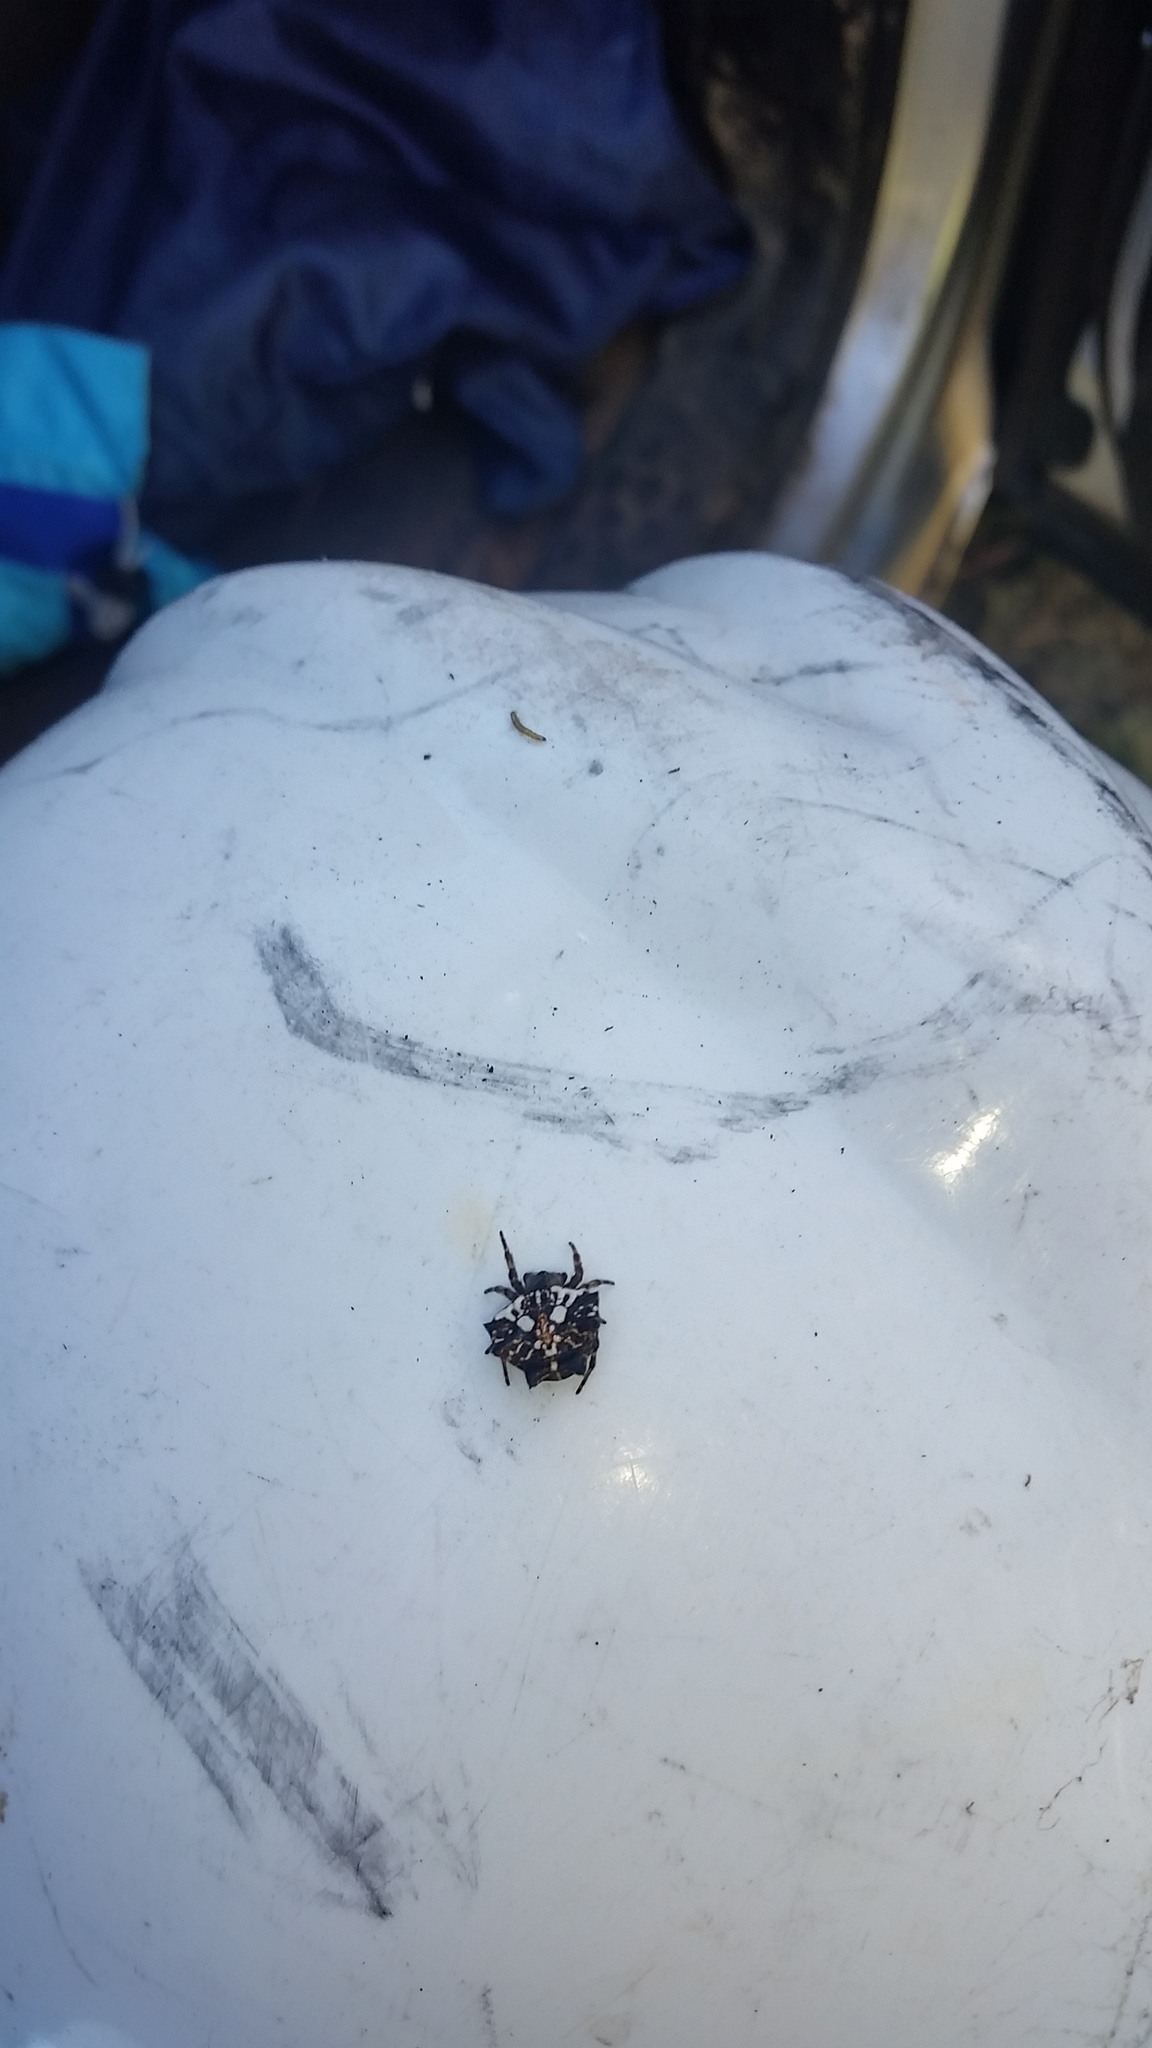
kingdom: Animalia
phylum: Arthropoda
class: Arachnida
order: Araneae
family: Araneidae
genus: Thelacantha
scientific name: Thelacantha brevispina
